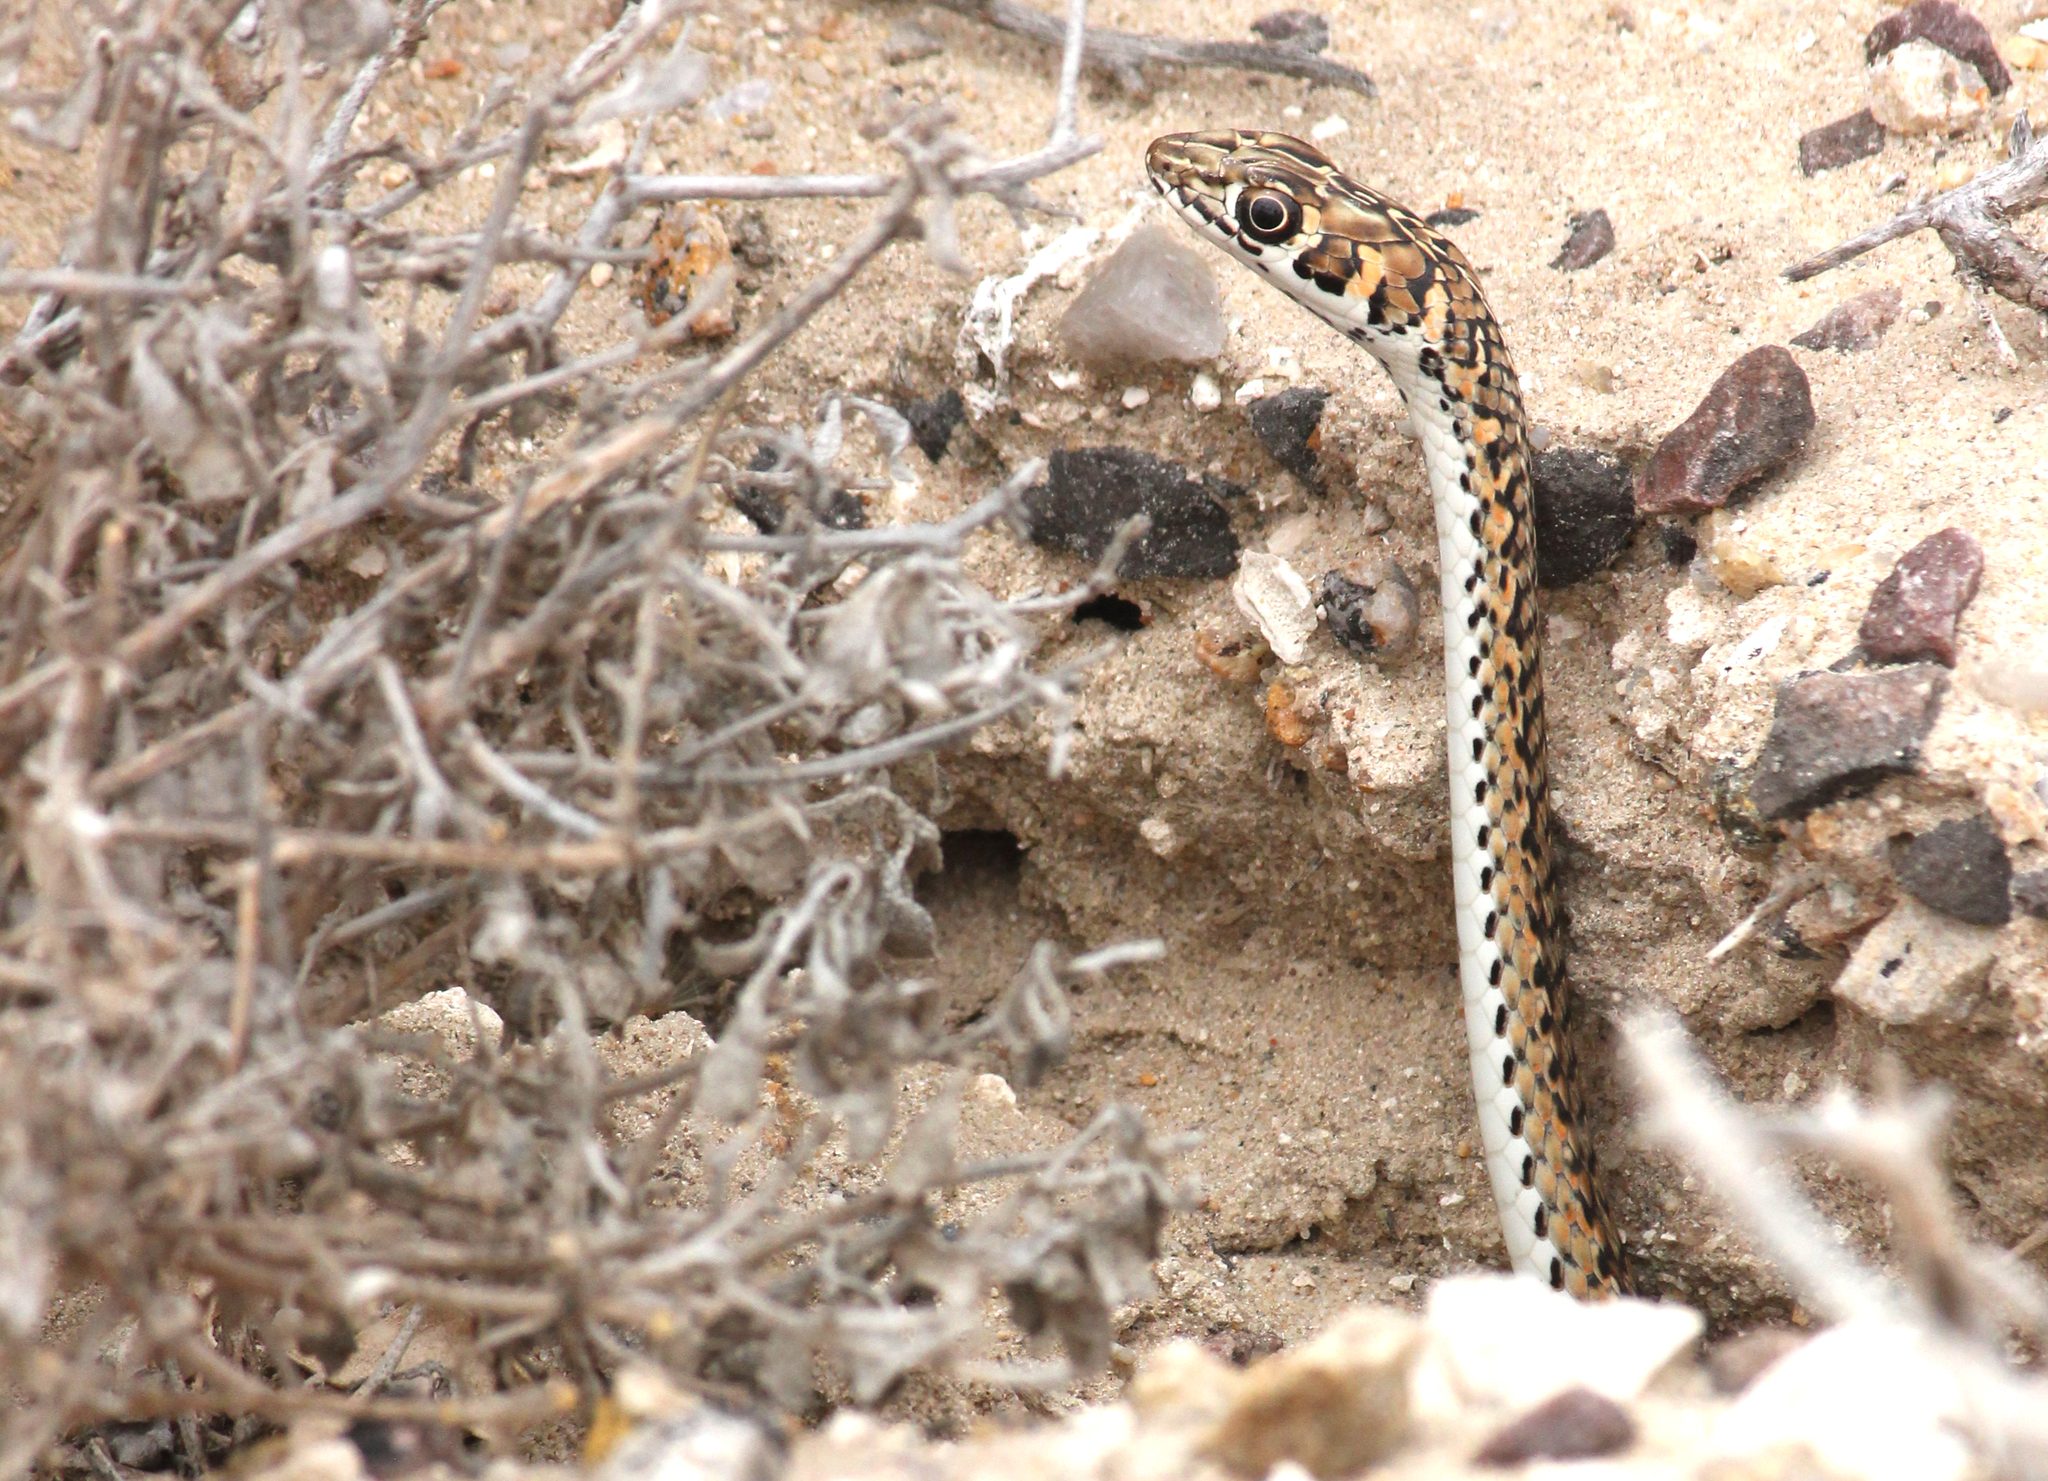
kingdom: Animalia
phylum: Chordata
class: Squamata
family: Psammophiidae
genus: Psammophis
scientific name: Psammophis leightoni
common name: Cape sand snake
